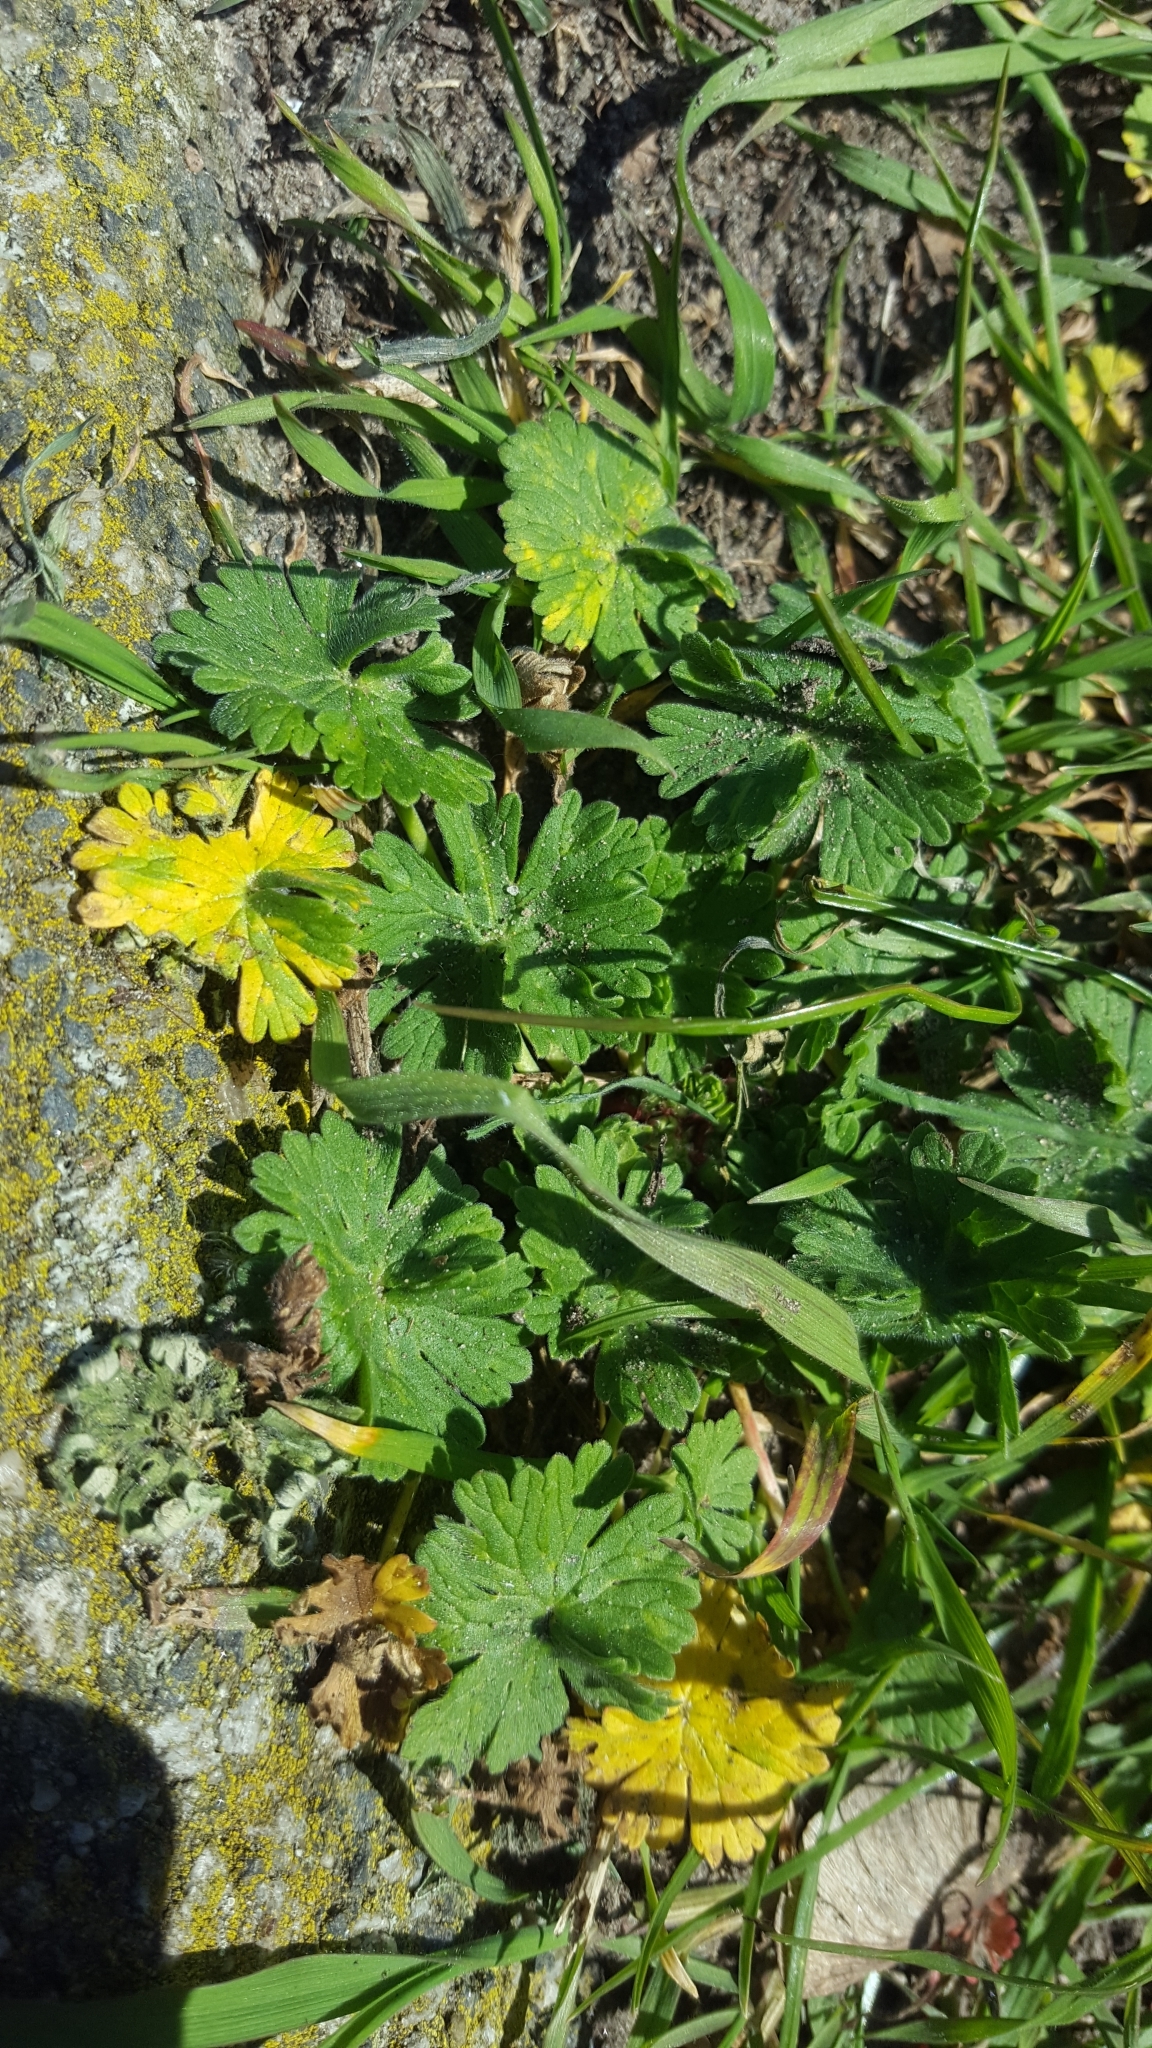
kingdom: Plantae
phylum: Tracheophyta
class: Magnoliopsida
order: Geraniales
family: Geraniaceae
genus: Geranium
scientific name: Geranium molle
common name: Dove's-foot crane's-bill
